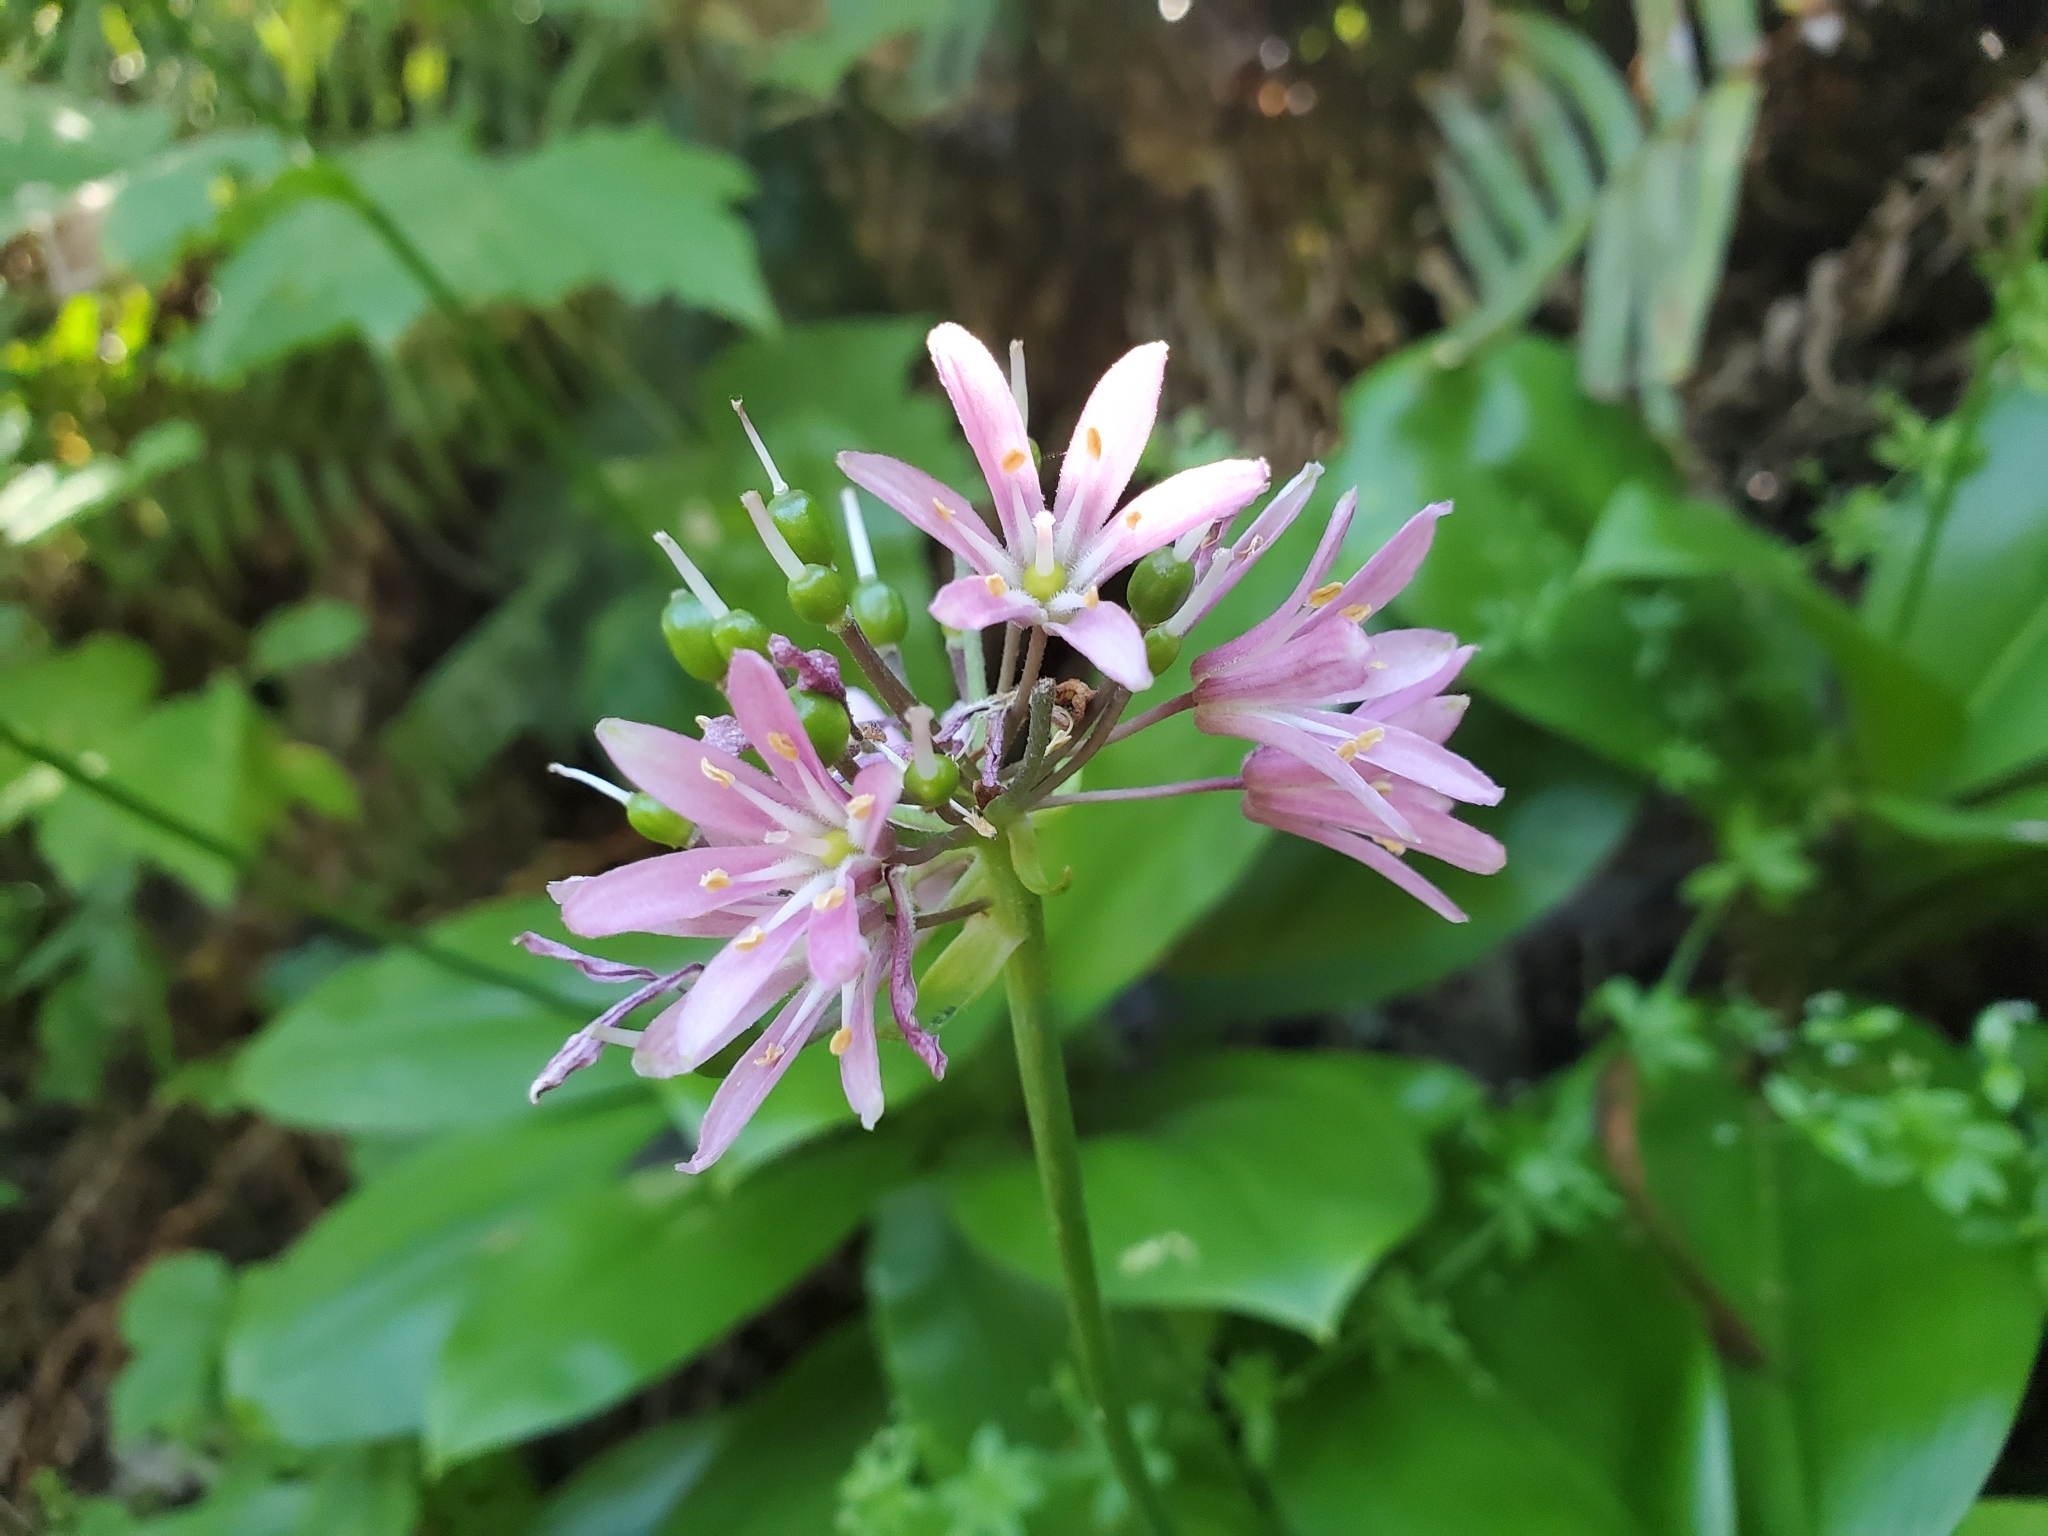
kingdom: Plantae
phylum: Tracheophyta
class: Liliopsida
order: Liliales
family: Liliaceae
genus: Clintonia
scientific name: Clintonia andrewsiana
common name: Red clintonia
